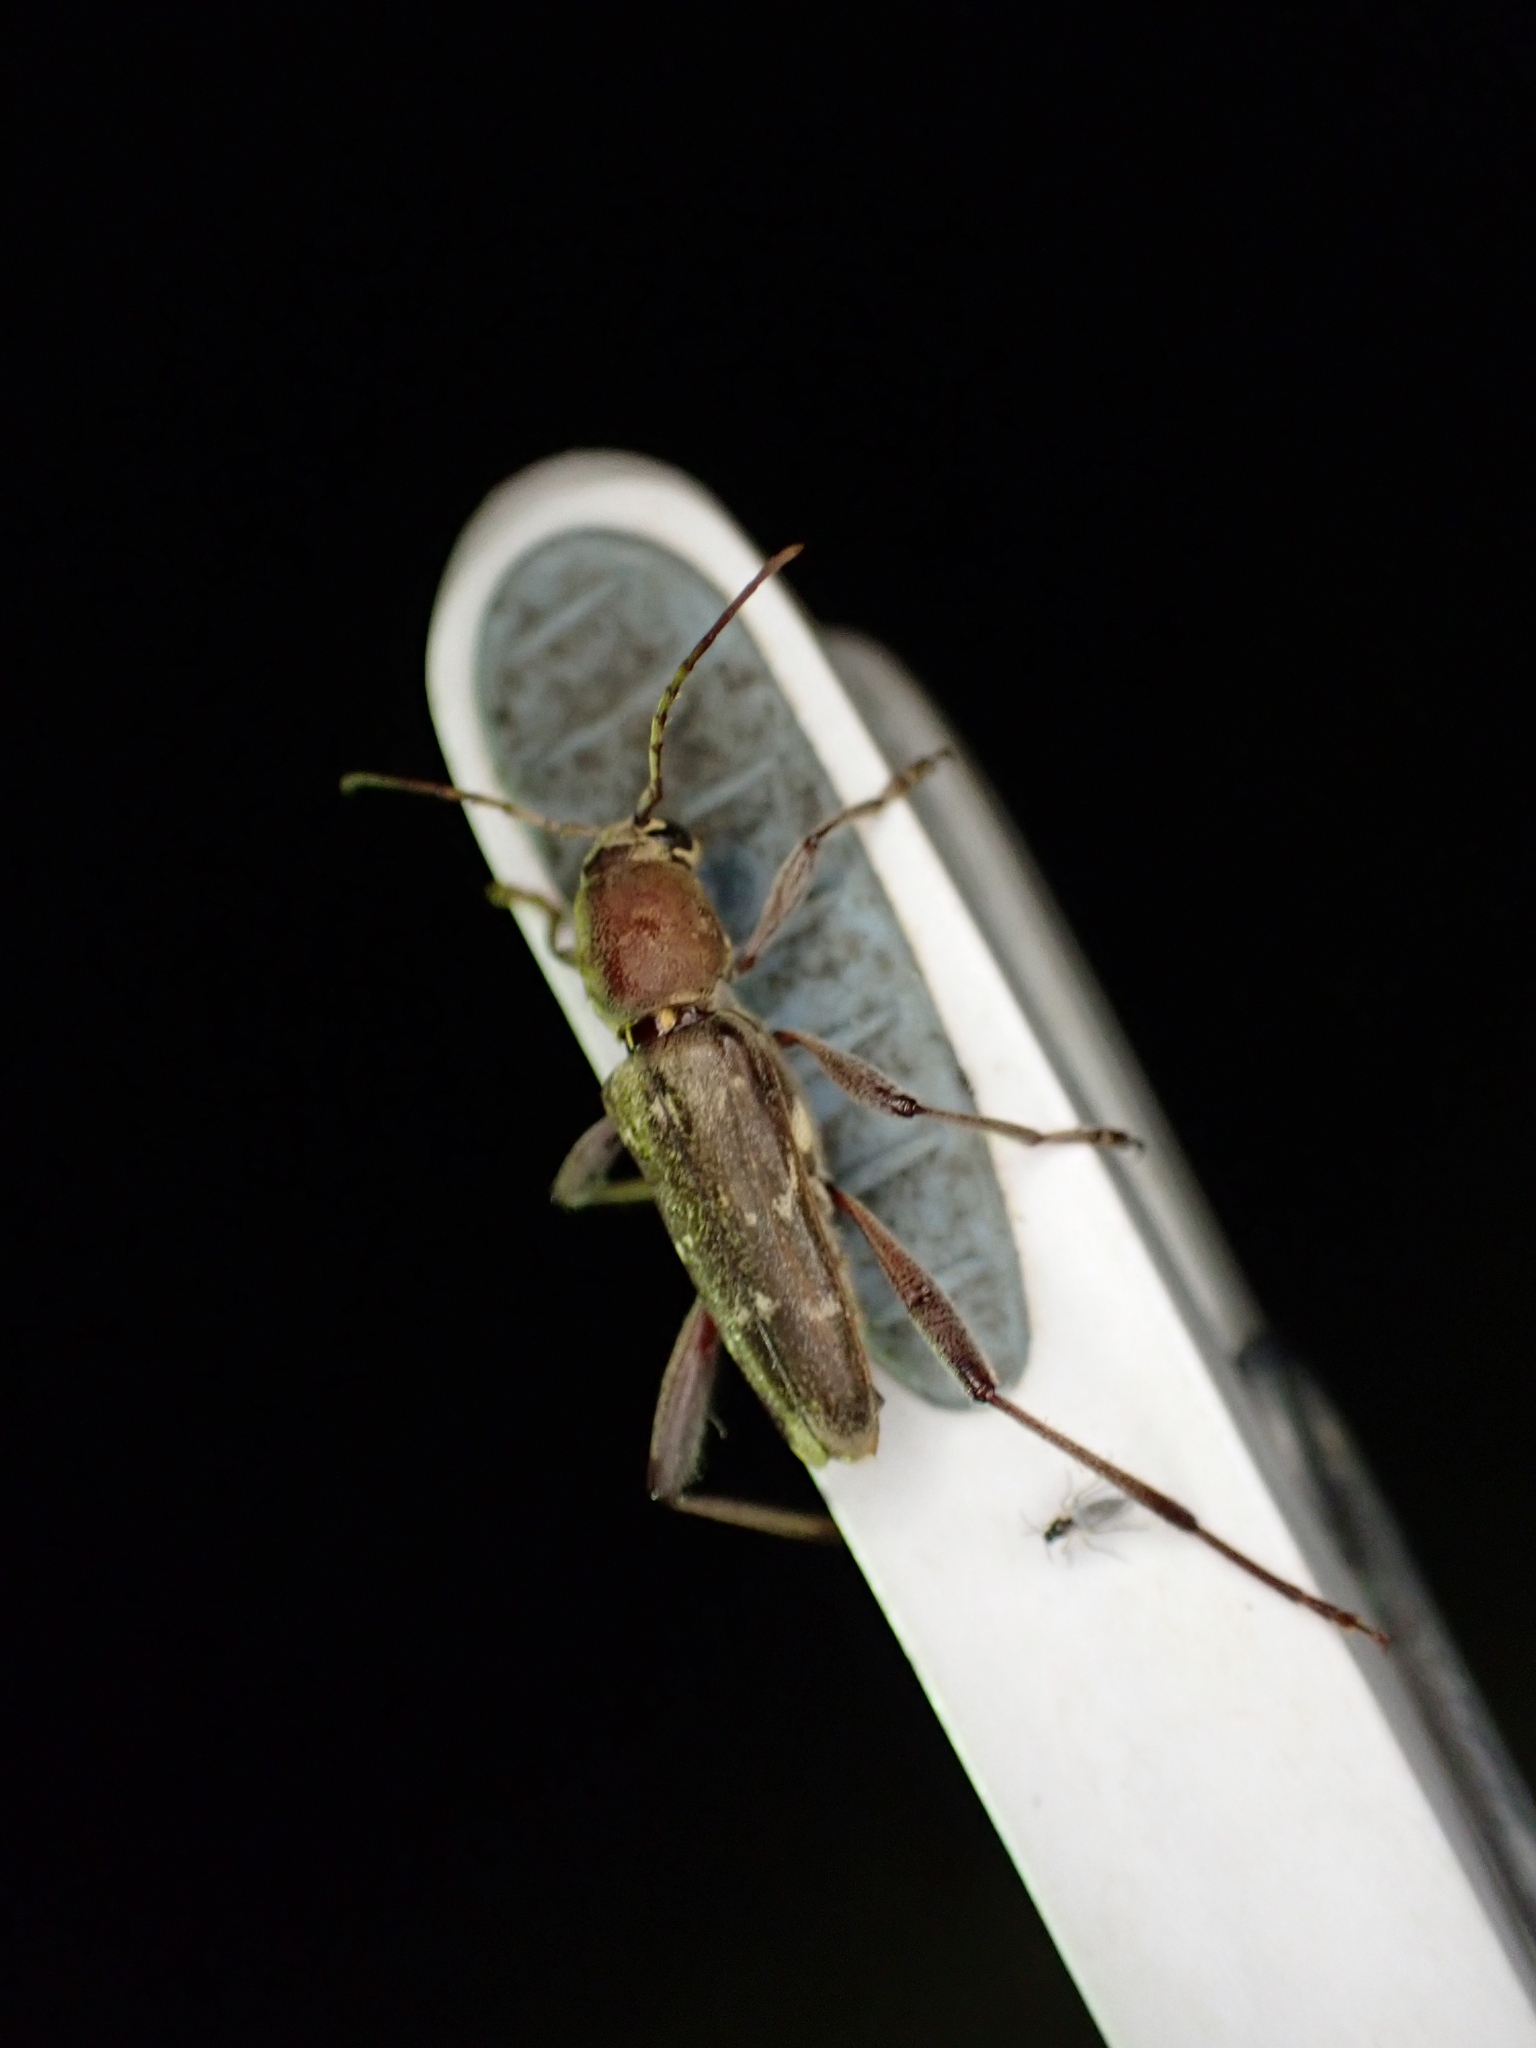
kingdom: Animalia
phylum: Arthropoda
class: Insecta
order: Coleoptera
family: Cerambycidae
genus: Xylotrechus
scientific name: Xylotrechus smei
